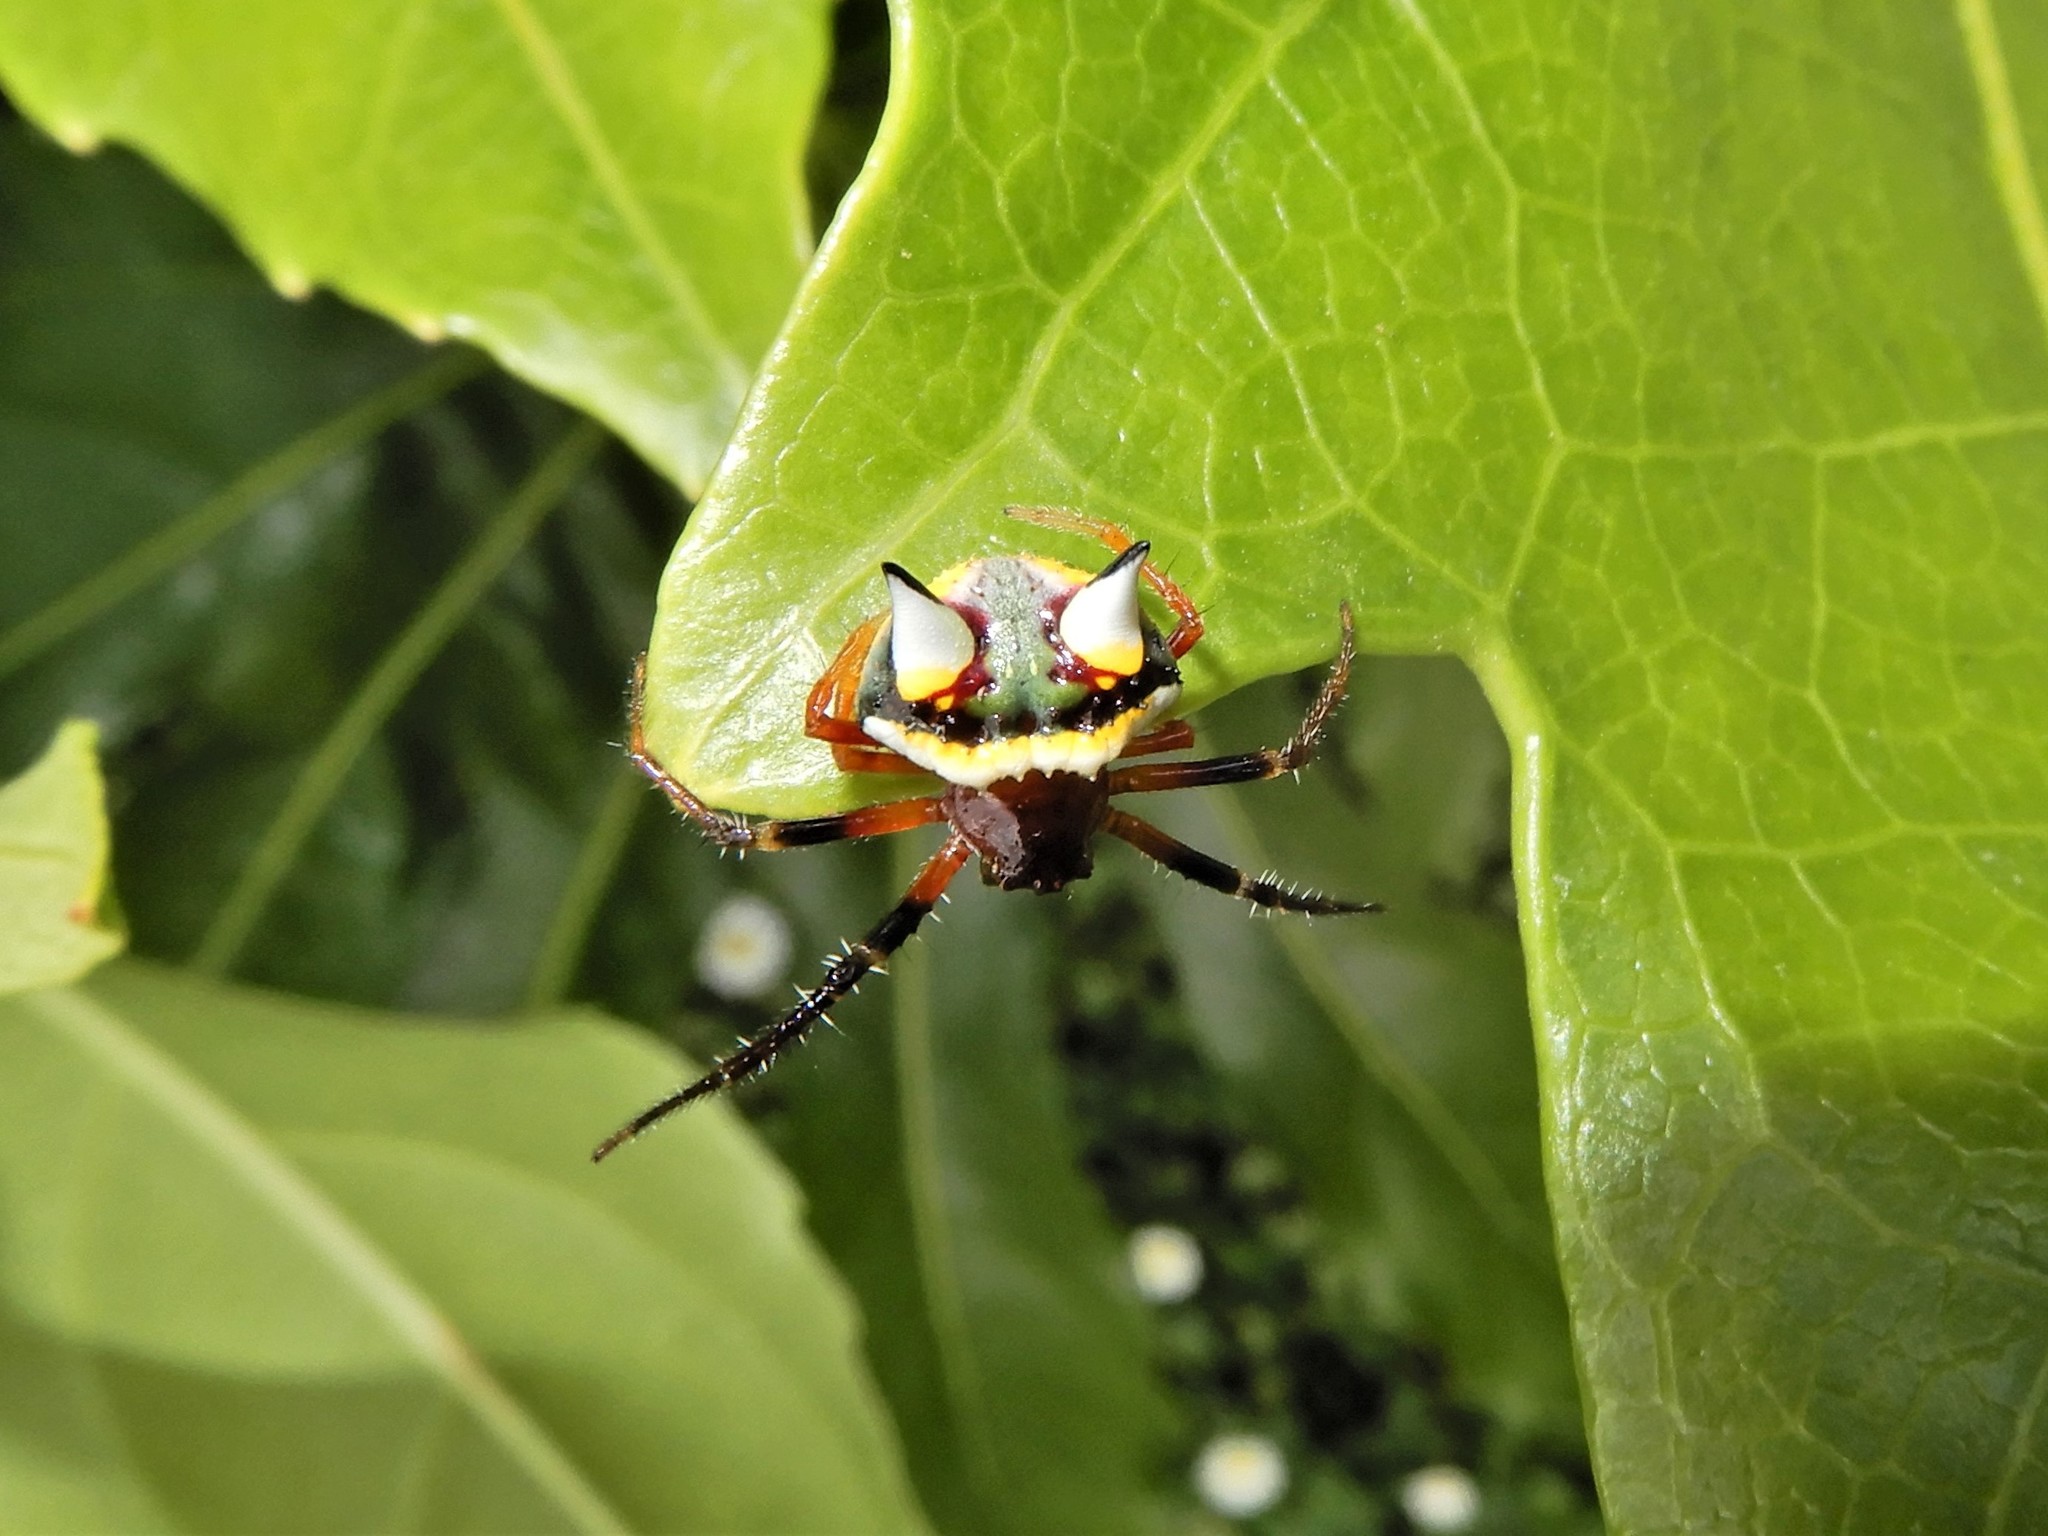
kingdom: Animalia
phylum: Arthropoda
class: Arachnida
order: Araneae
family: Araneidae
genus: Poecilopachys
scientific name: Poecilopachys australasia
